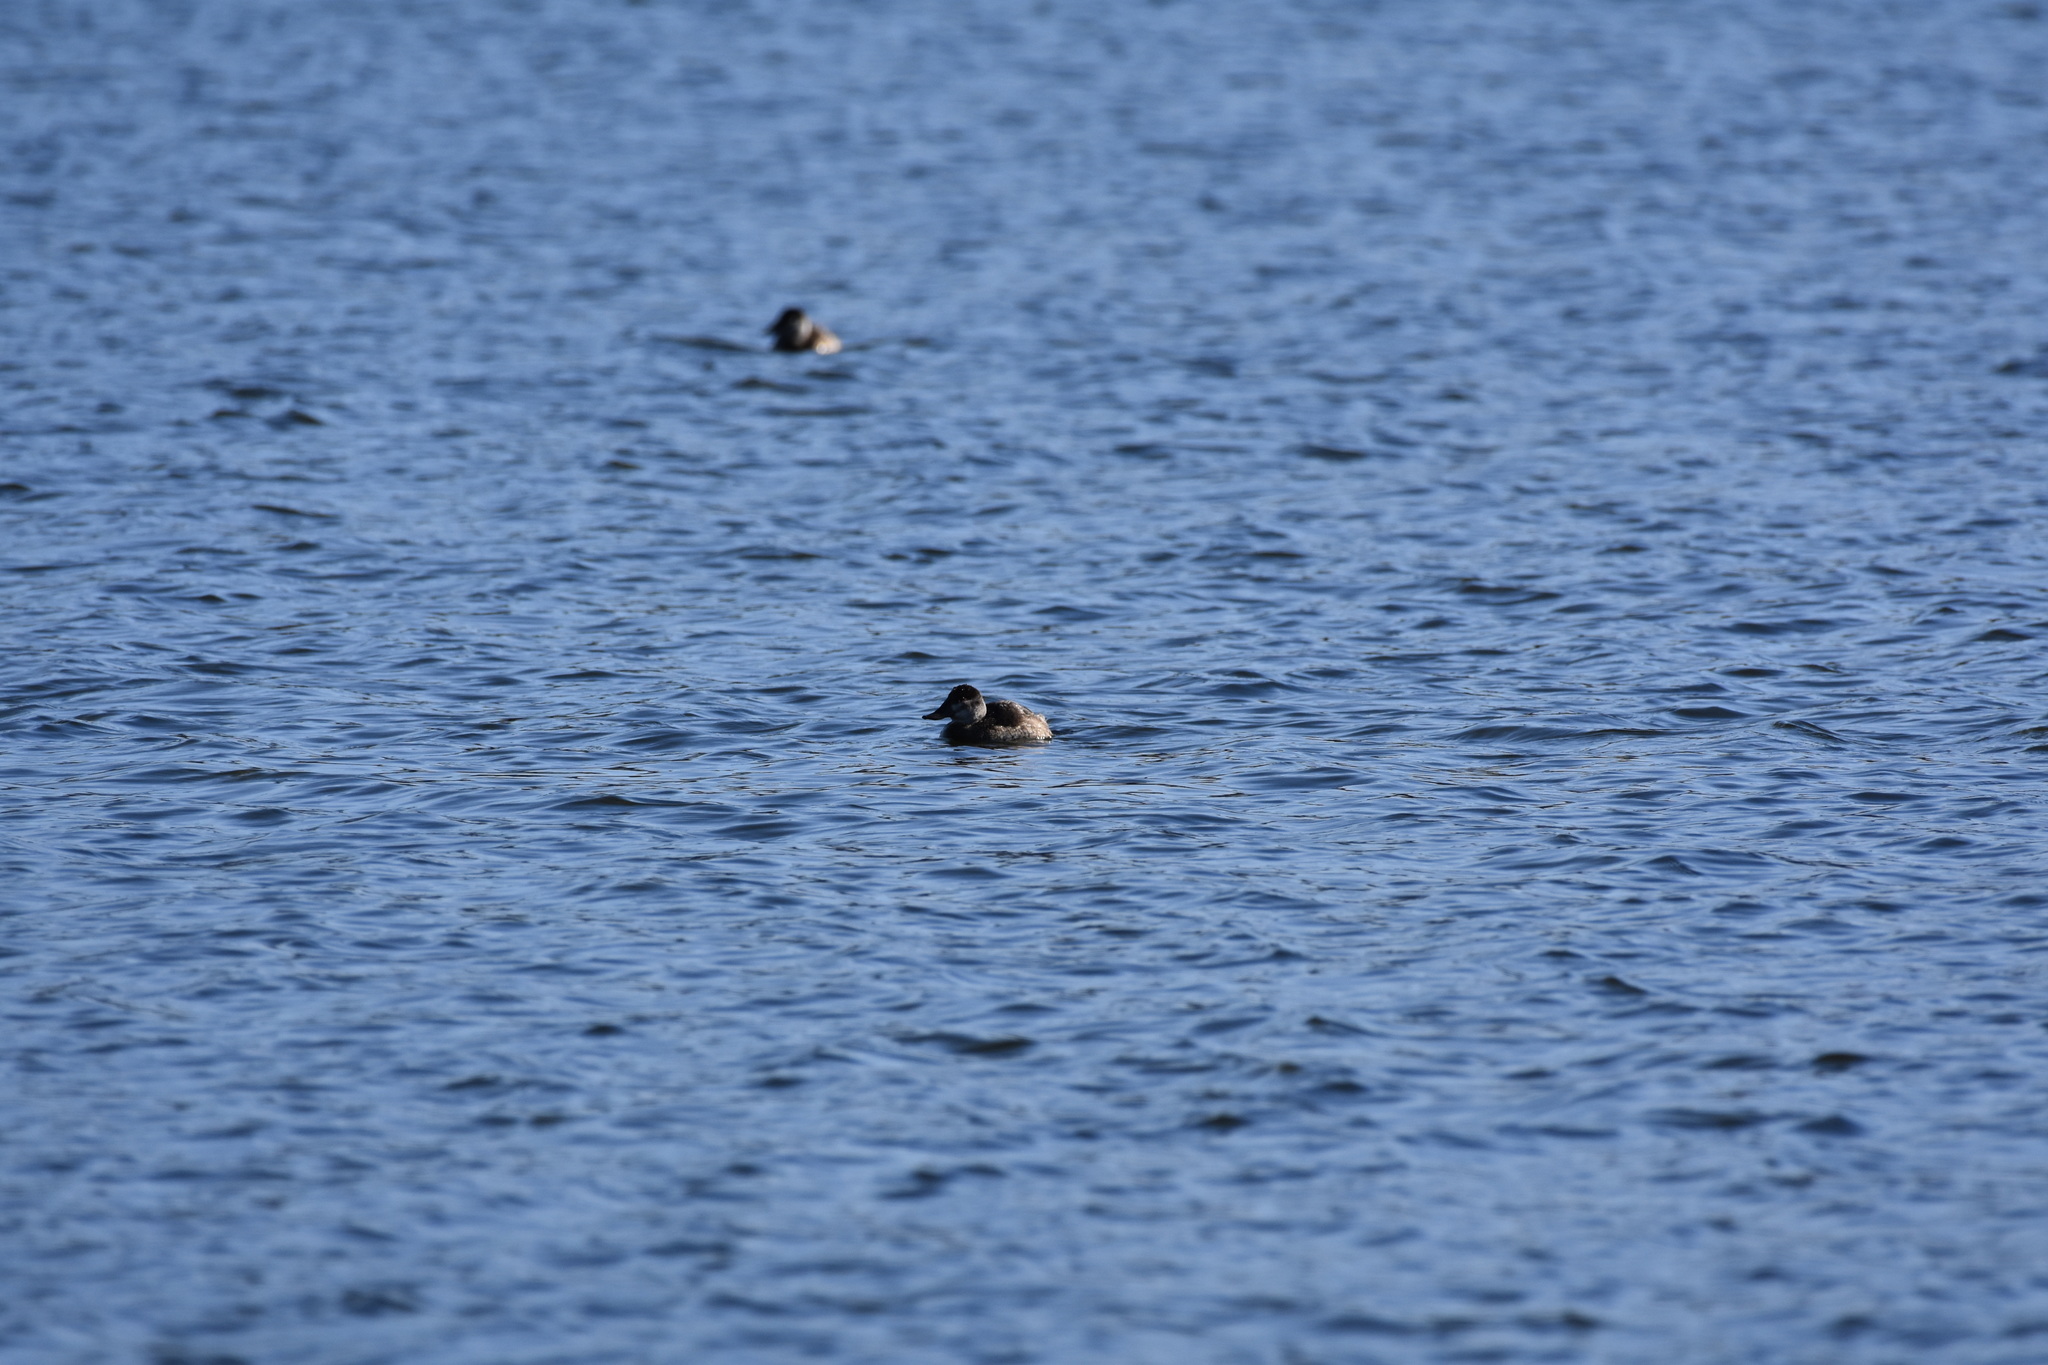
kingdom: Animalia
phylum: Chordata
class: Aves
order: Anseriformes
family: Anatidae
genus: Oxyura
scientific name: Oxyura jamaicensis
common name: Ruddy duck
